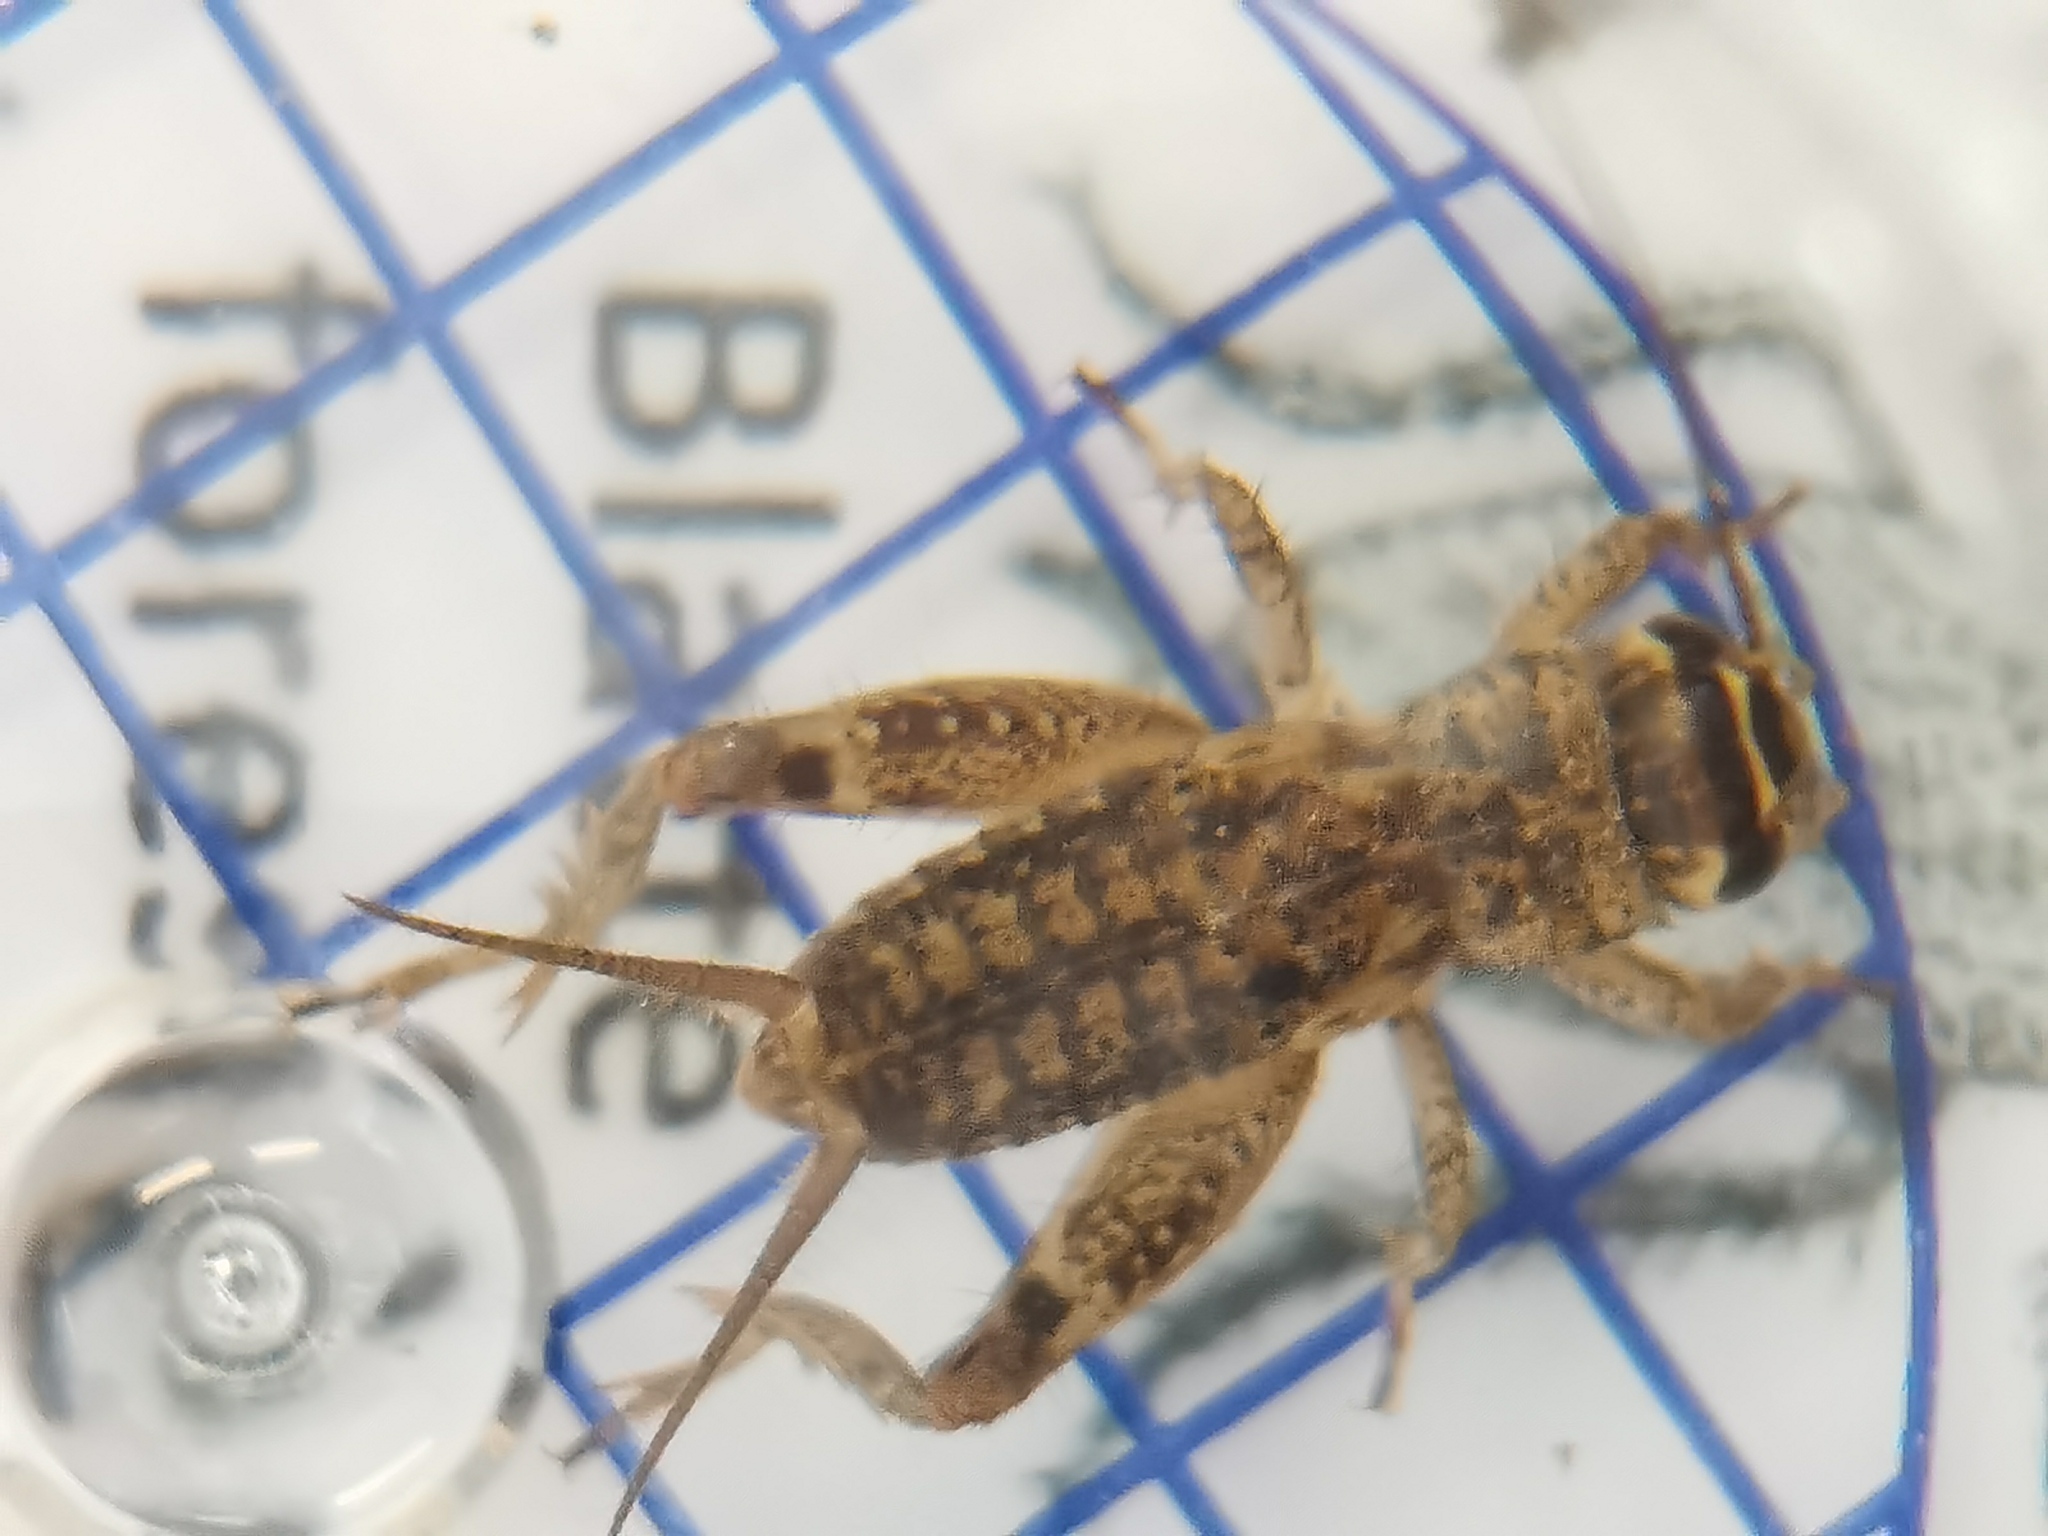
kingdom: Animalia
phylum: Arthropoda
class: Insecta
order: Orthoptera
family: Gryllidae
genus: Eumodicogryllus
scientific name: Eumodicogryllus bordigalensis
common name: Bordeaux cricket
